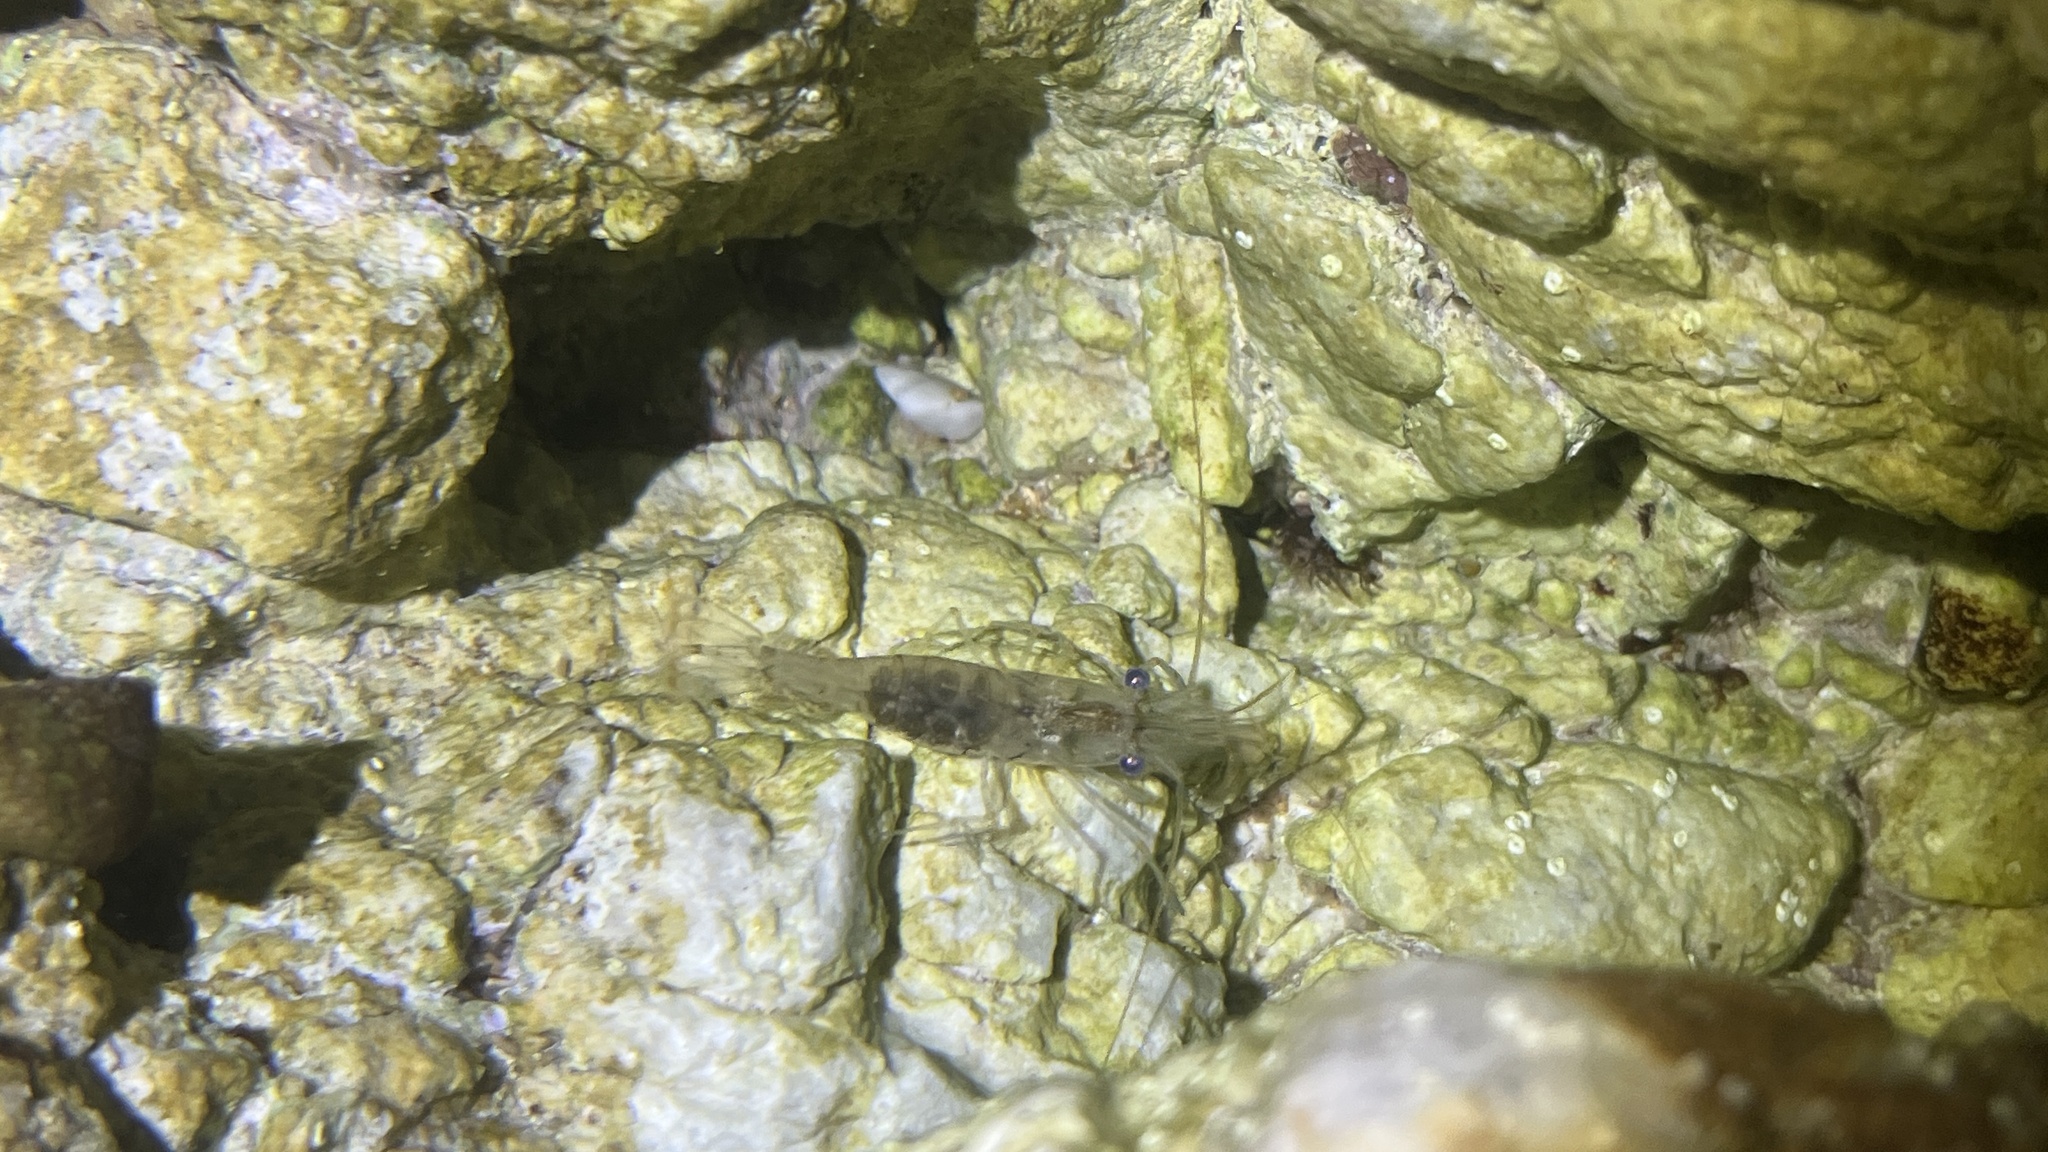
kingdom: Animalia
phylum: Arthropoda
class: Malacostraca
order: Decapoda
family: Palaemonidae
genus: Palaemon
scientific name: Palaemon elegans
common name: Grass prawm
